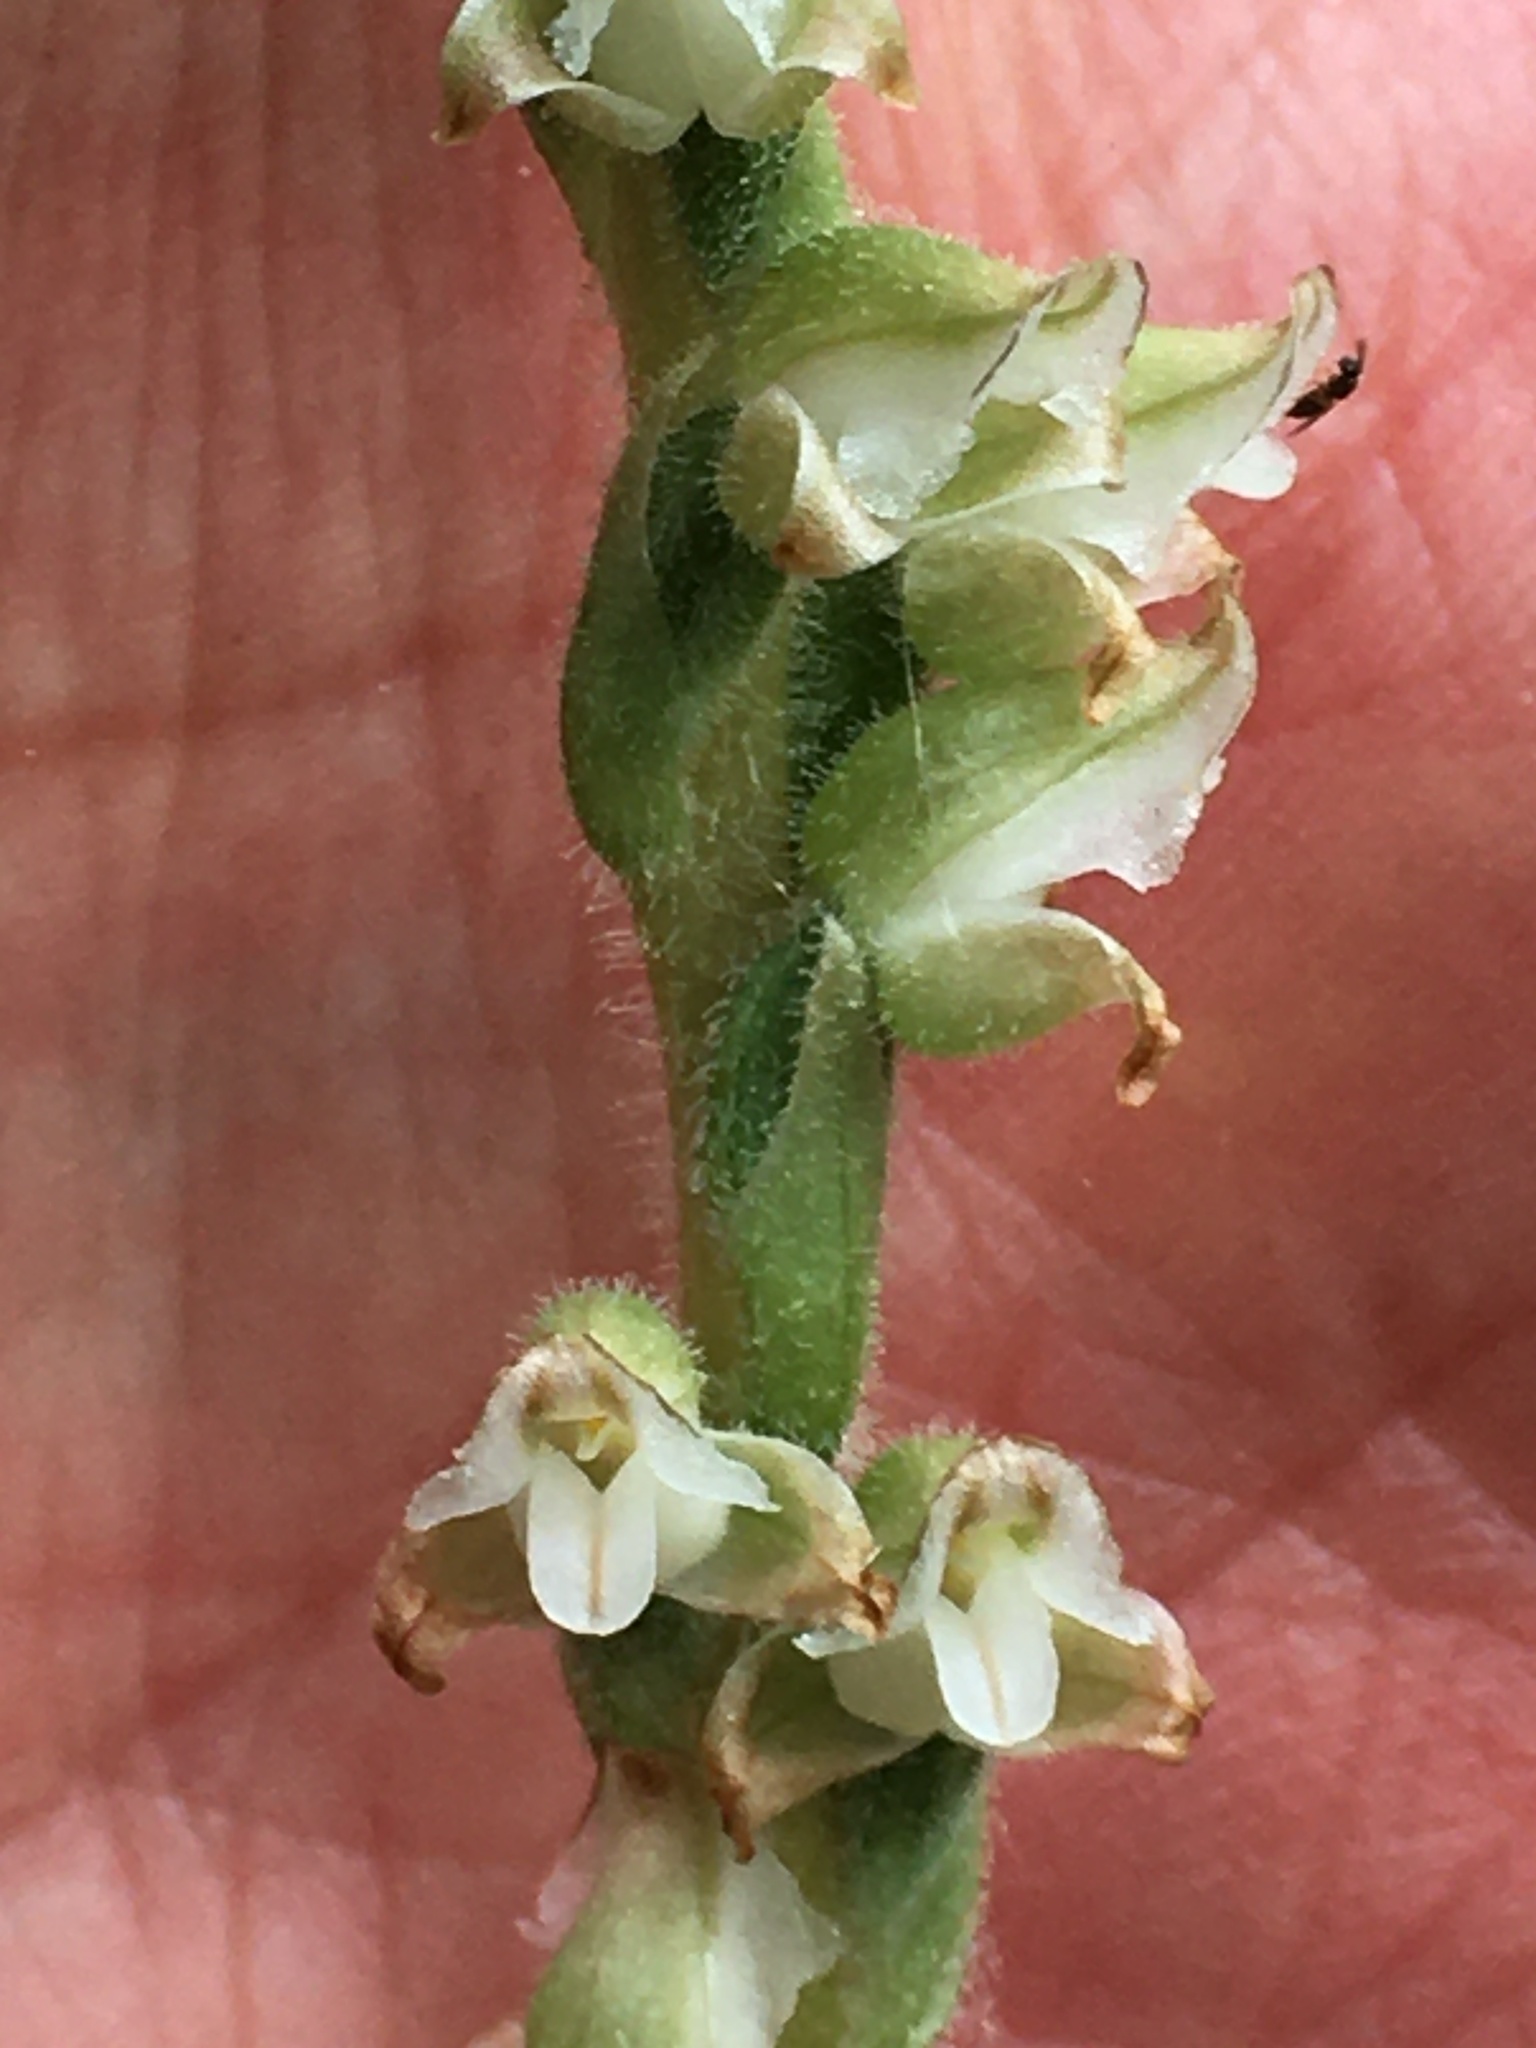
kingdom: Plantae
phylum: Tracheophyta
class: Liliopsida
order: Asparagales
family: Orchidaceae
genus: Goodyera
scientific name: Goodyera oblongifolia
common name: Giant rattlesnake-plantain
